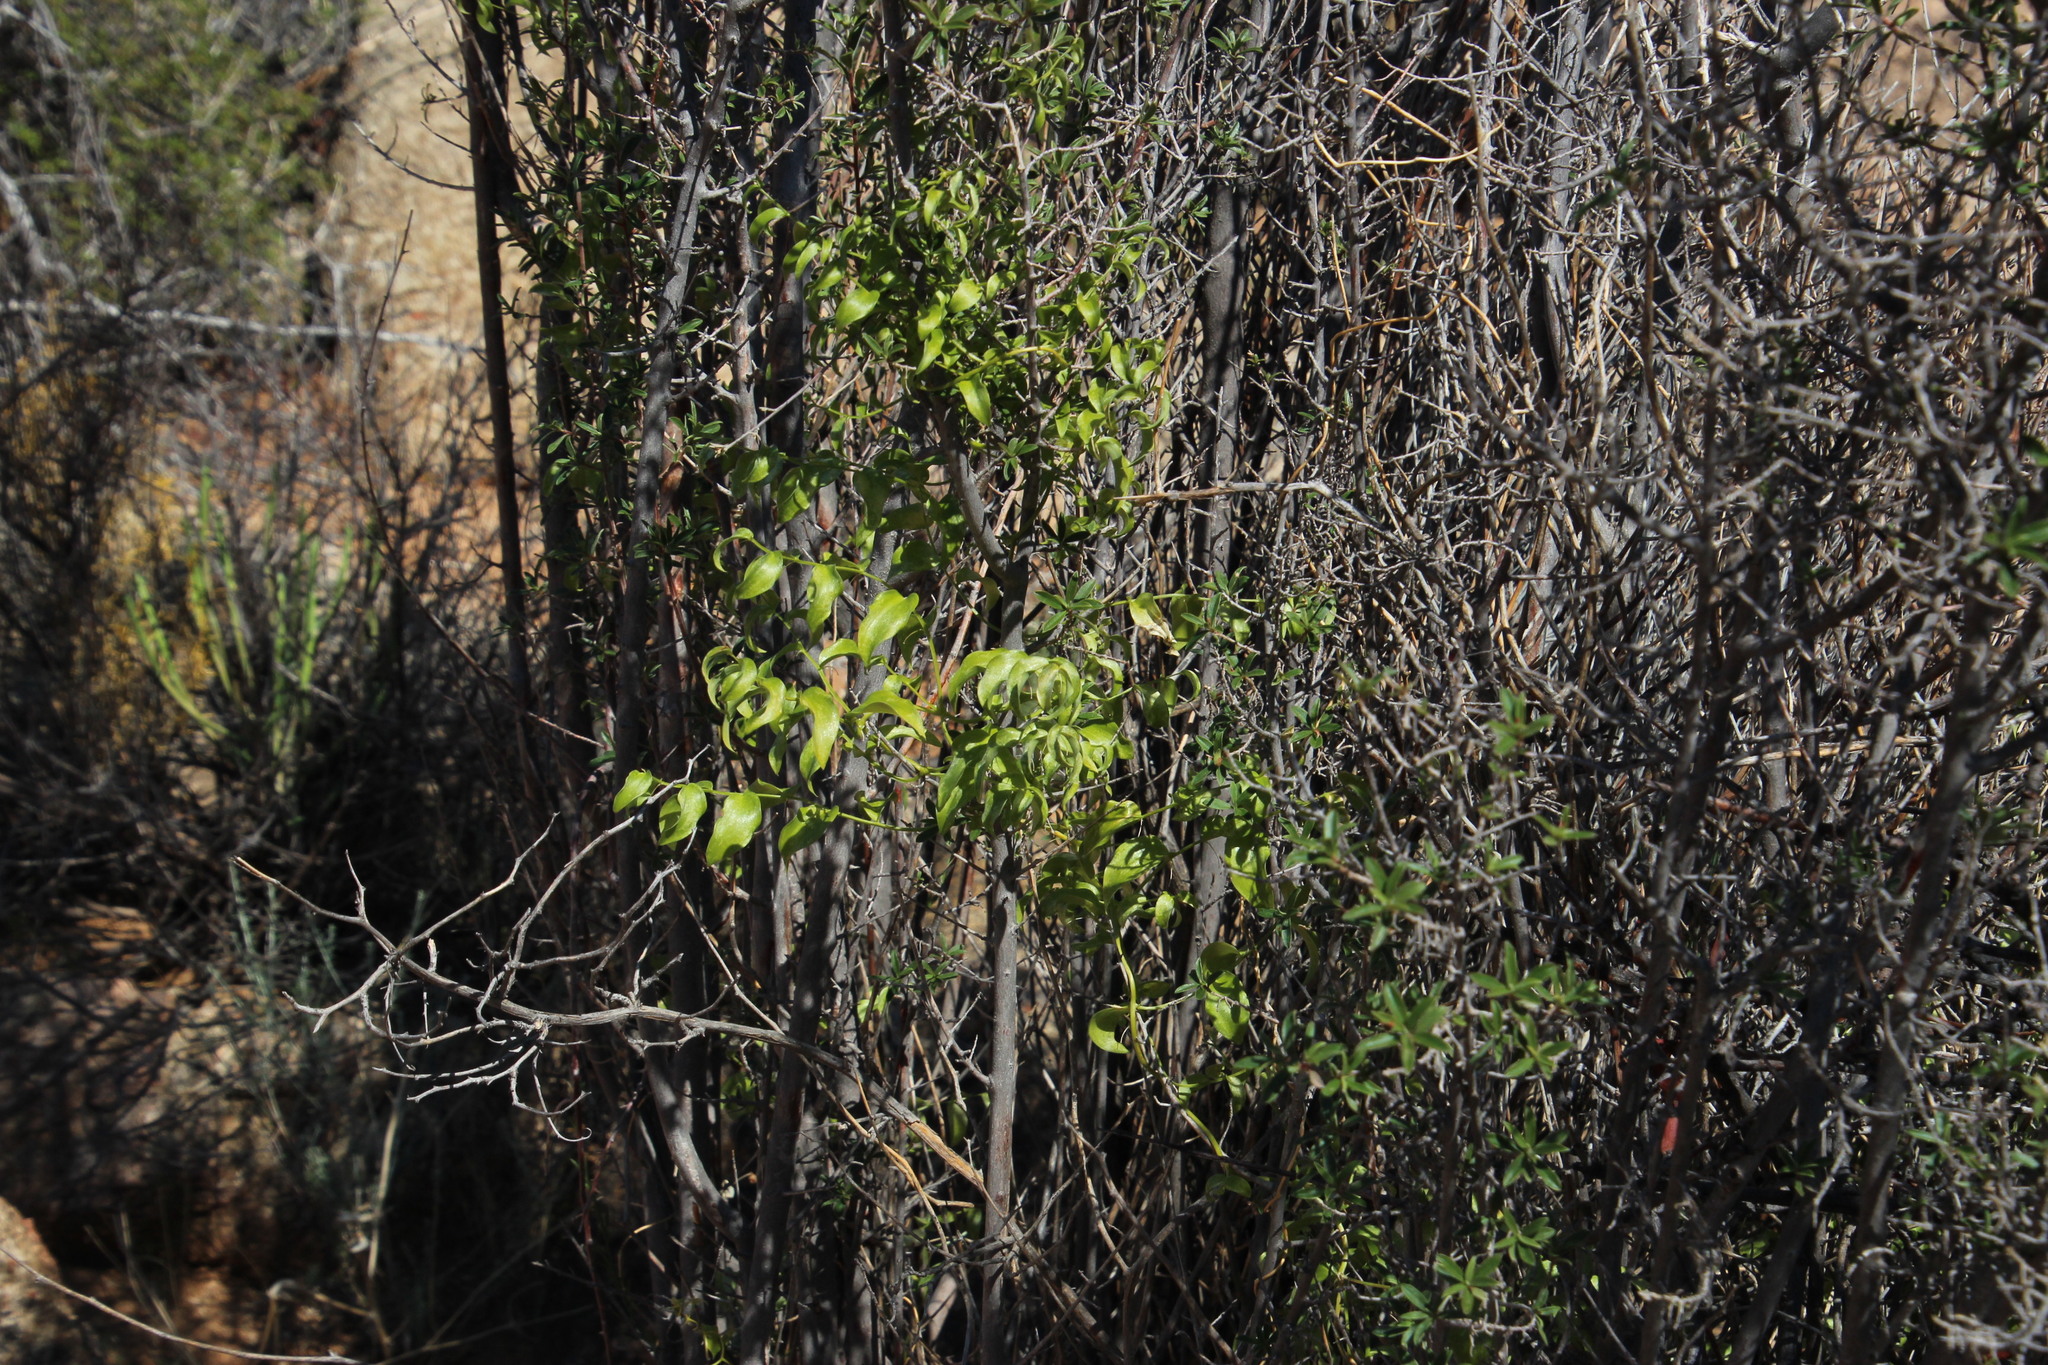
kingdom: Plantae
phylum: Tracheophyta
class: Liliopsida
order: Asparagales
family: Asparagaceae
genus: Asparagus
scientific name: Asparagus asparagoides
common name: African asparagus fern
